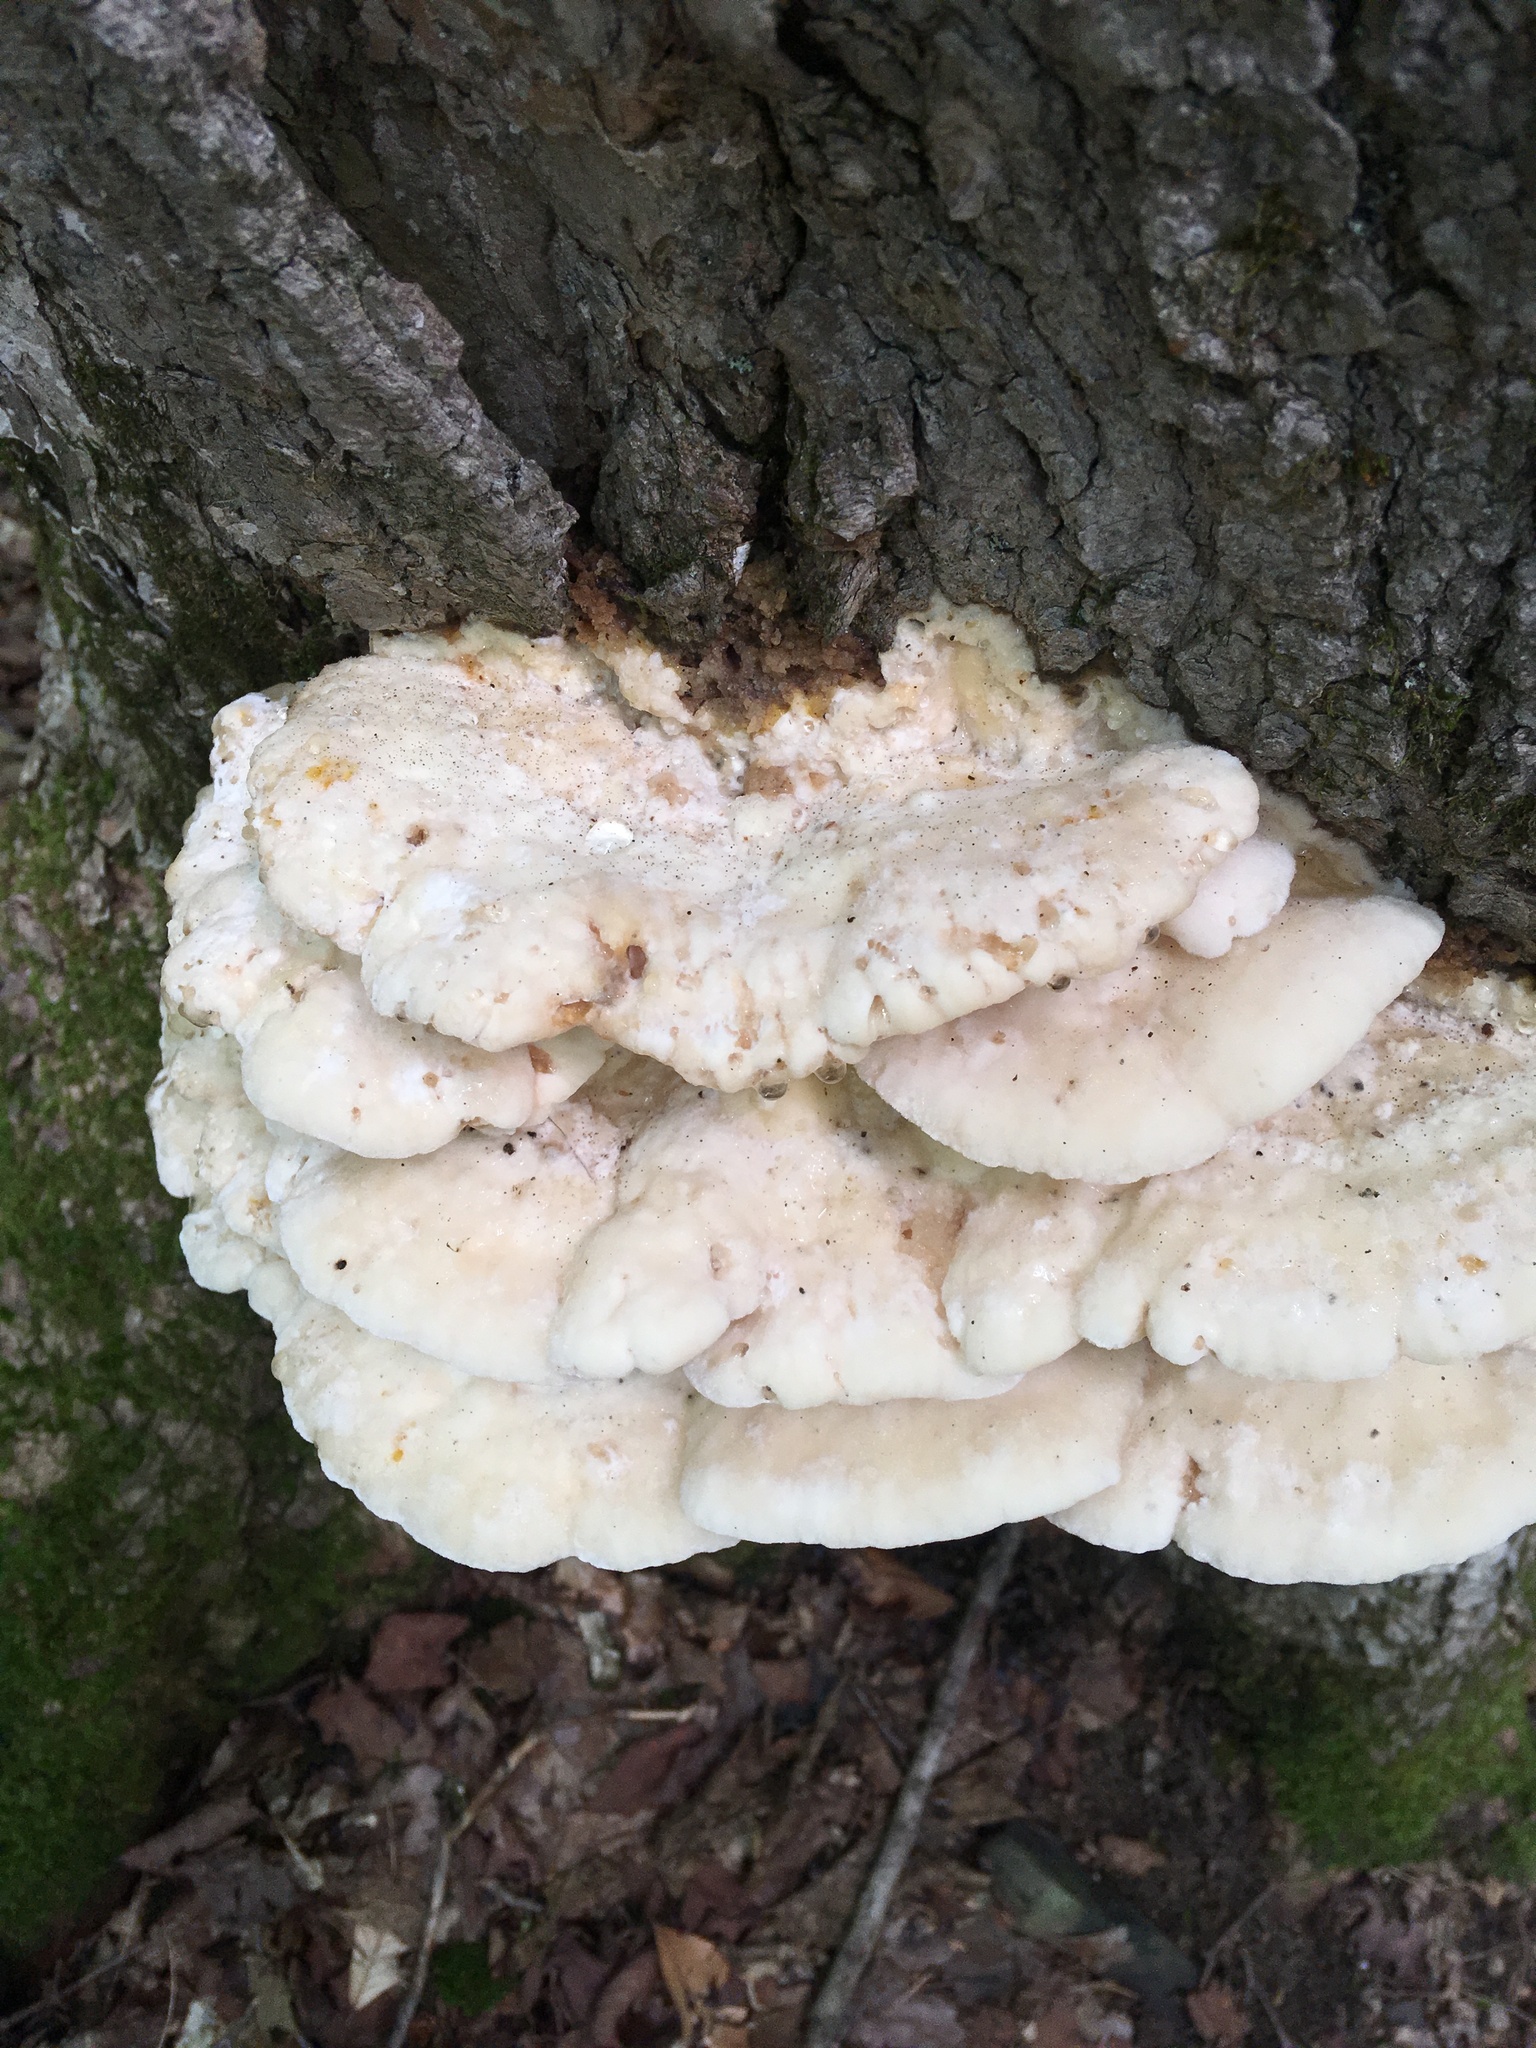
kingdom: Fungi
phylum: Basidiomycota
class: Agaricomycetes
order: Polyporales
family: Meruliaceae
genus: Climacodon
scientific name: Climacodon septentrionalis
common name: Northern tooth
